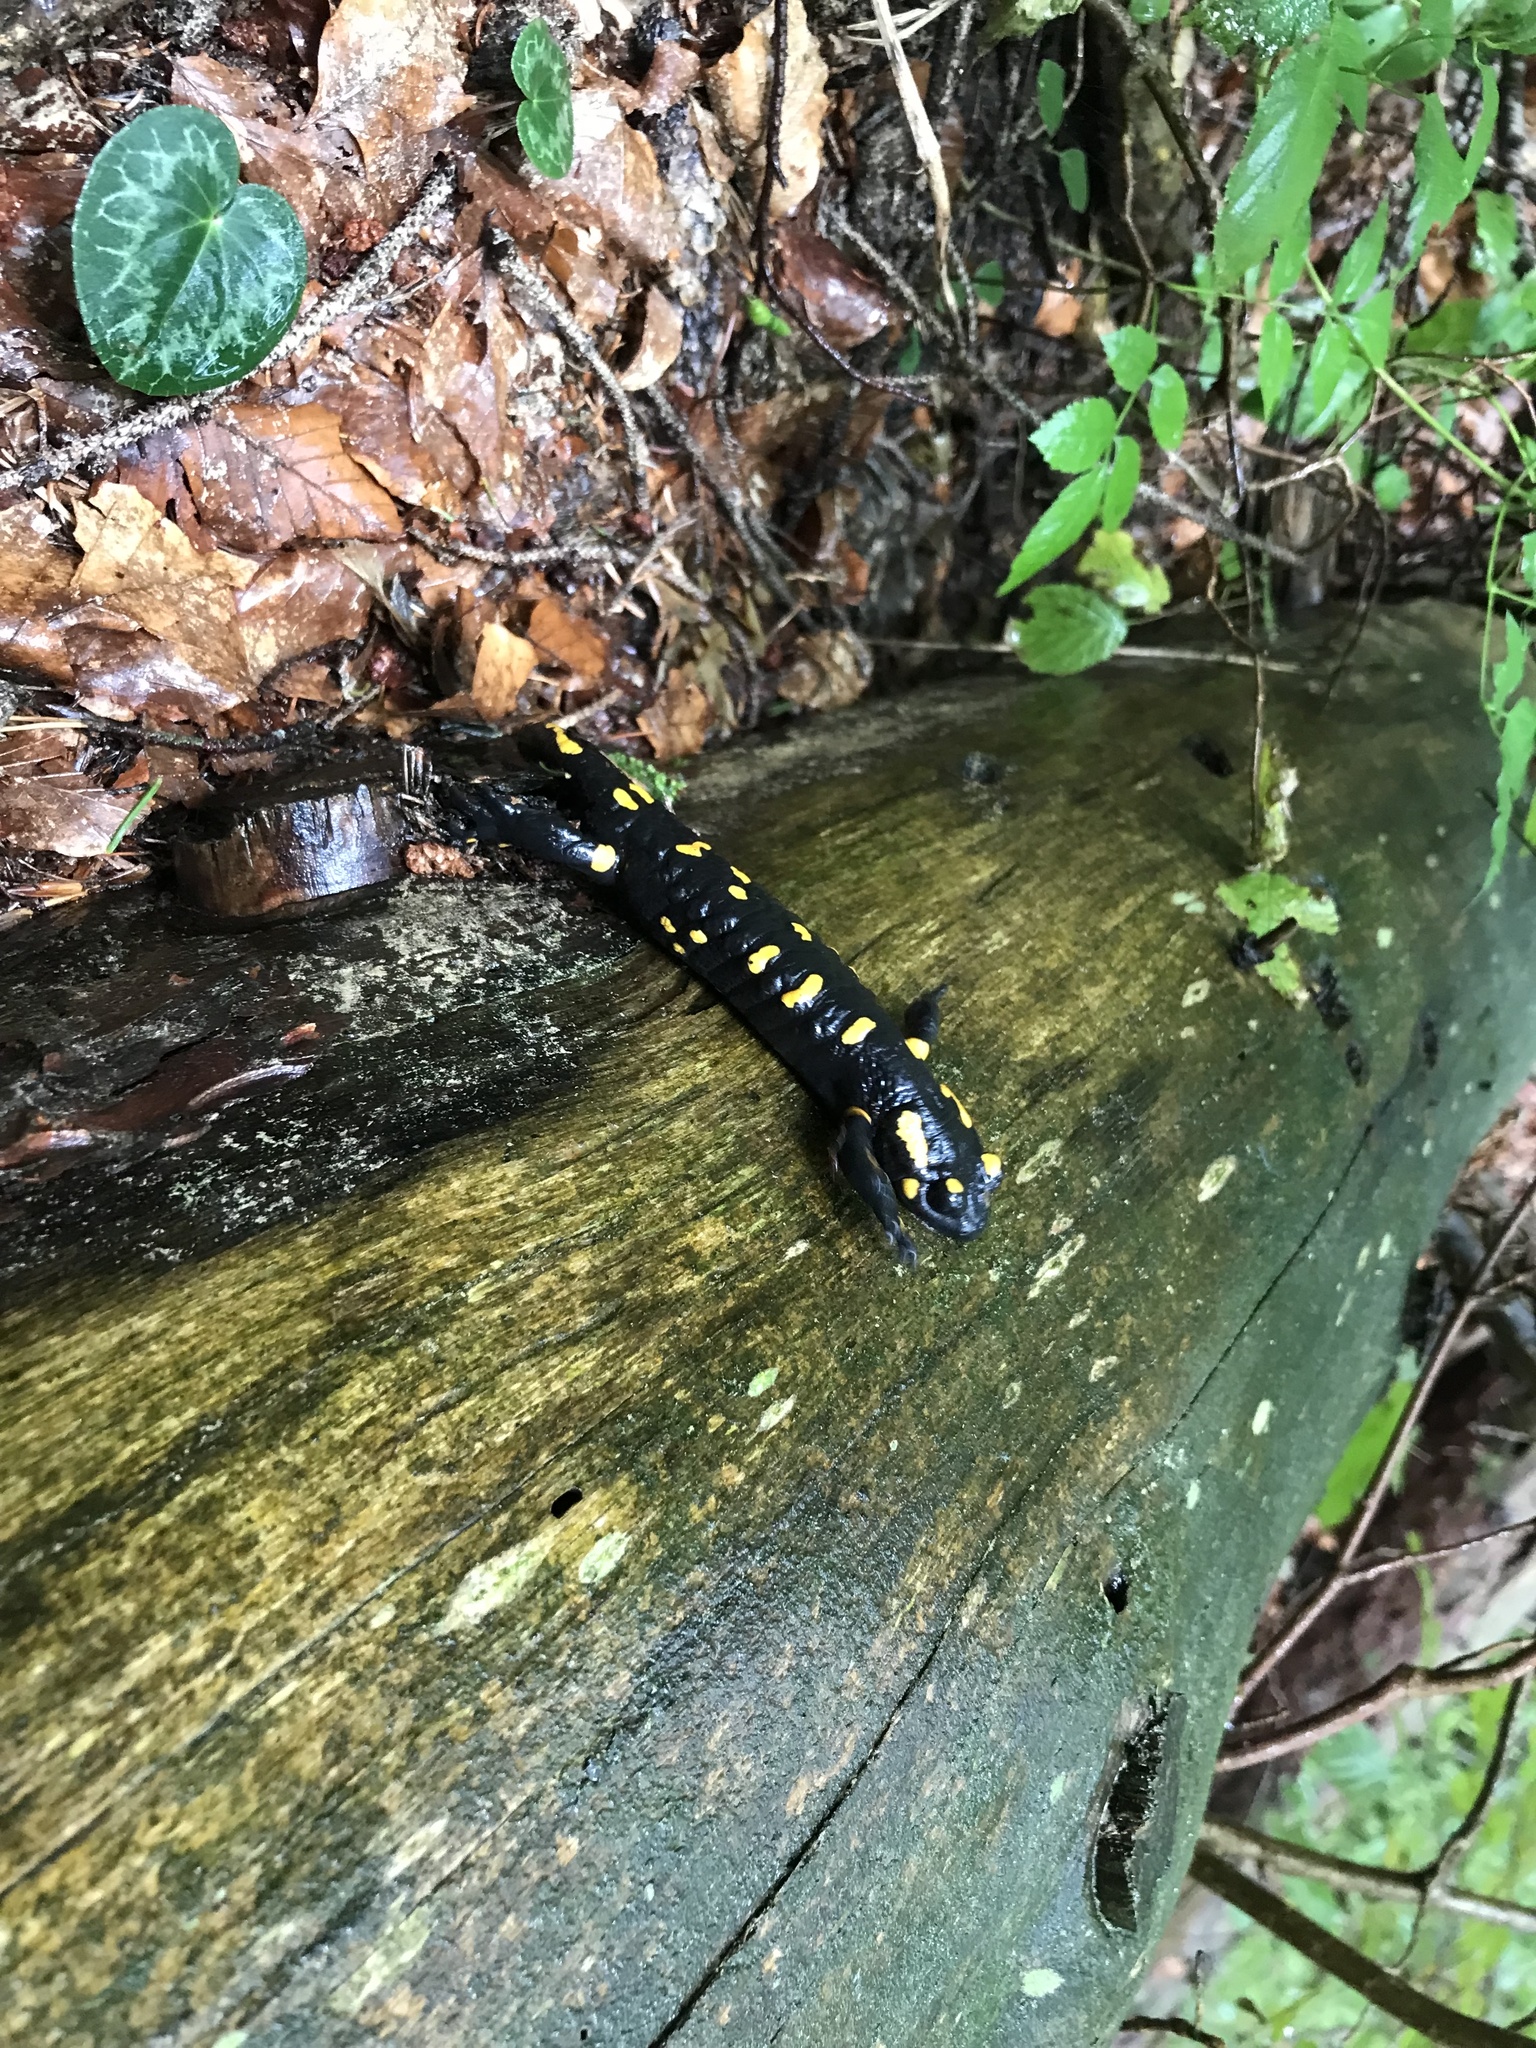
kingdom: Animalia
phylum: Chordata
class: Amphibia
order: Caudata
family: Salamandridae
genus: Salamandra
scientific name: Salamandra salamandra
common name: Fire salamander
